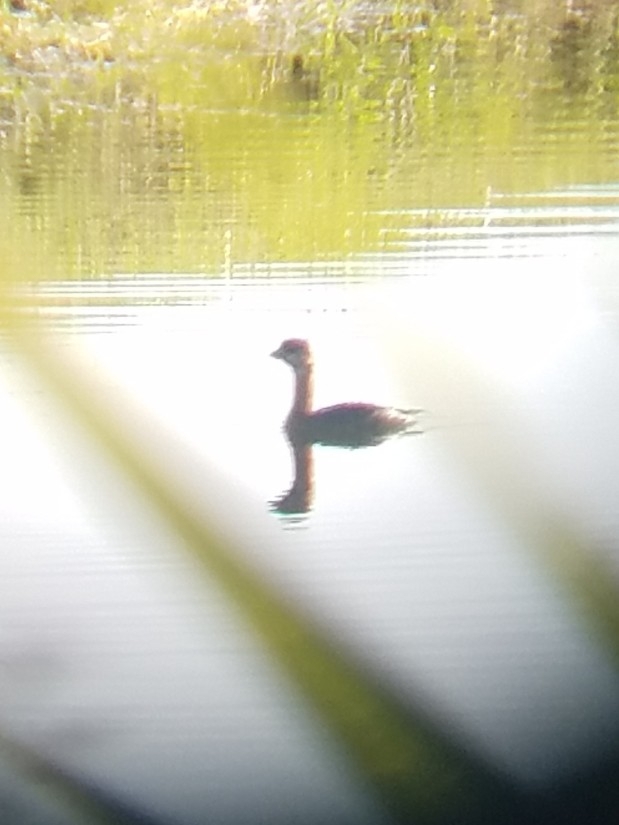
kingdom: Animalia
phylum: Chordata
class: Aves
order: Podicipediformes
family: Podicipedidae
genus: Podilymbus
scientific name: Podilymbus podiceps
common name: Pied-billed grebe
